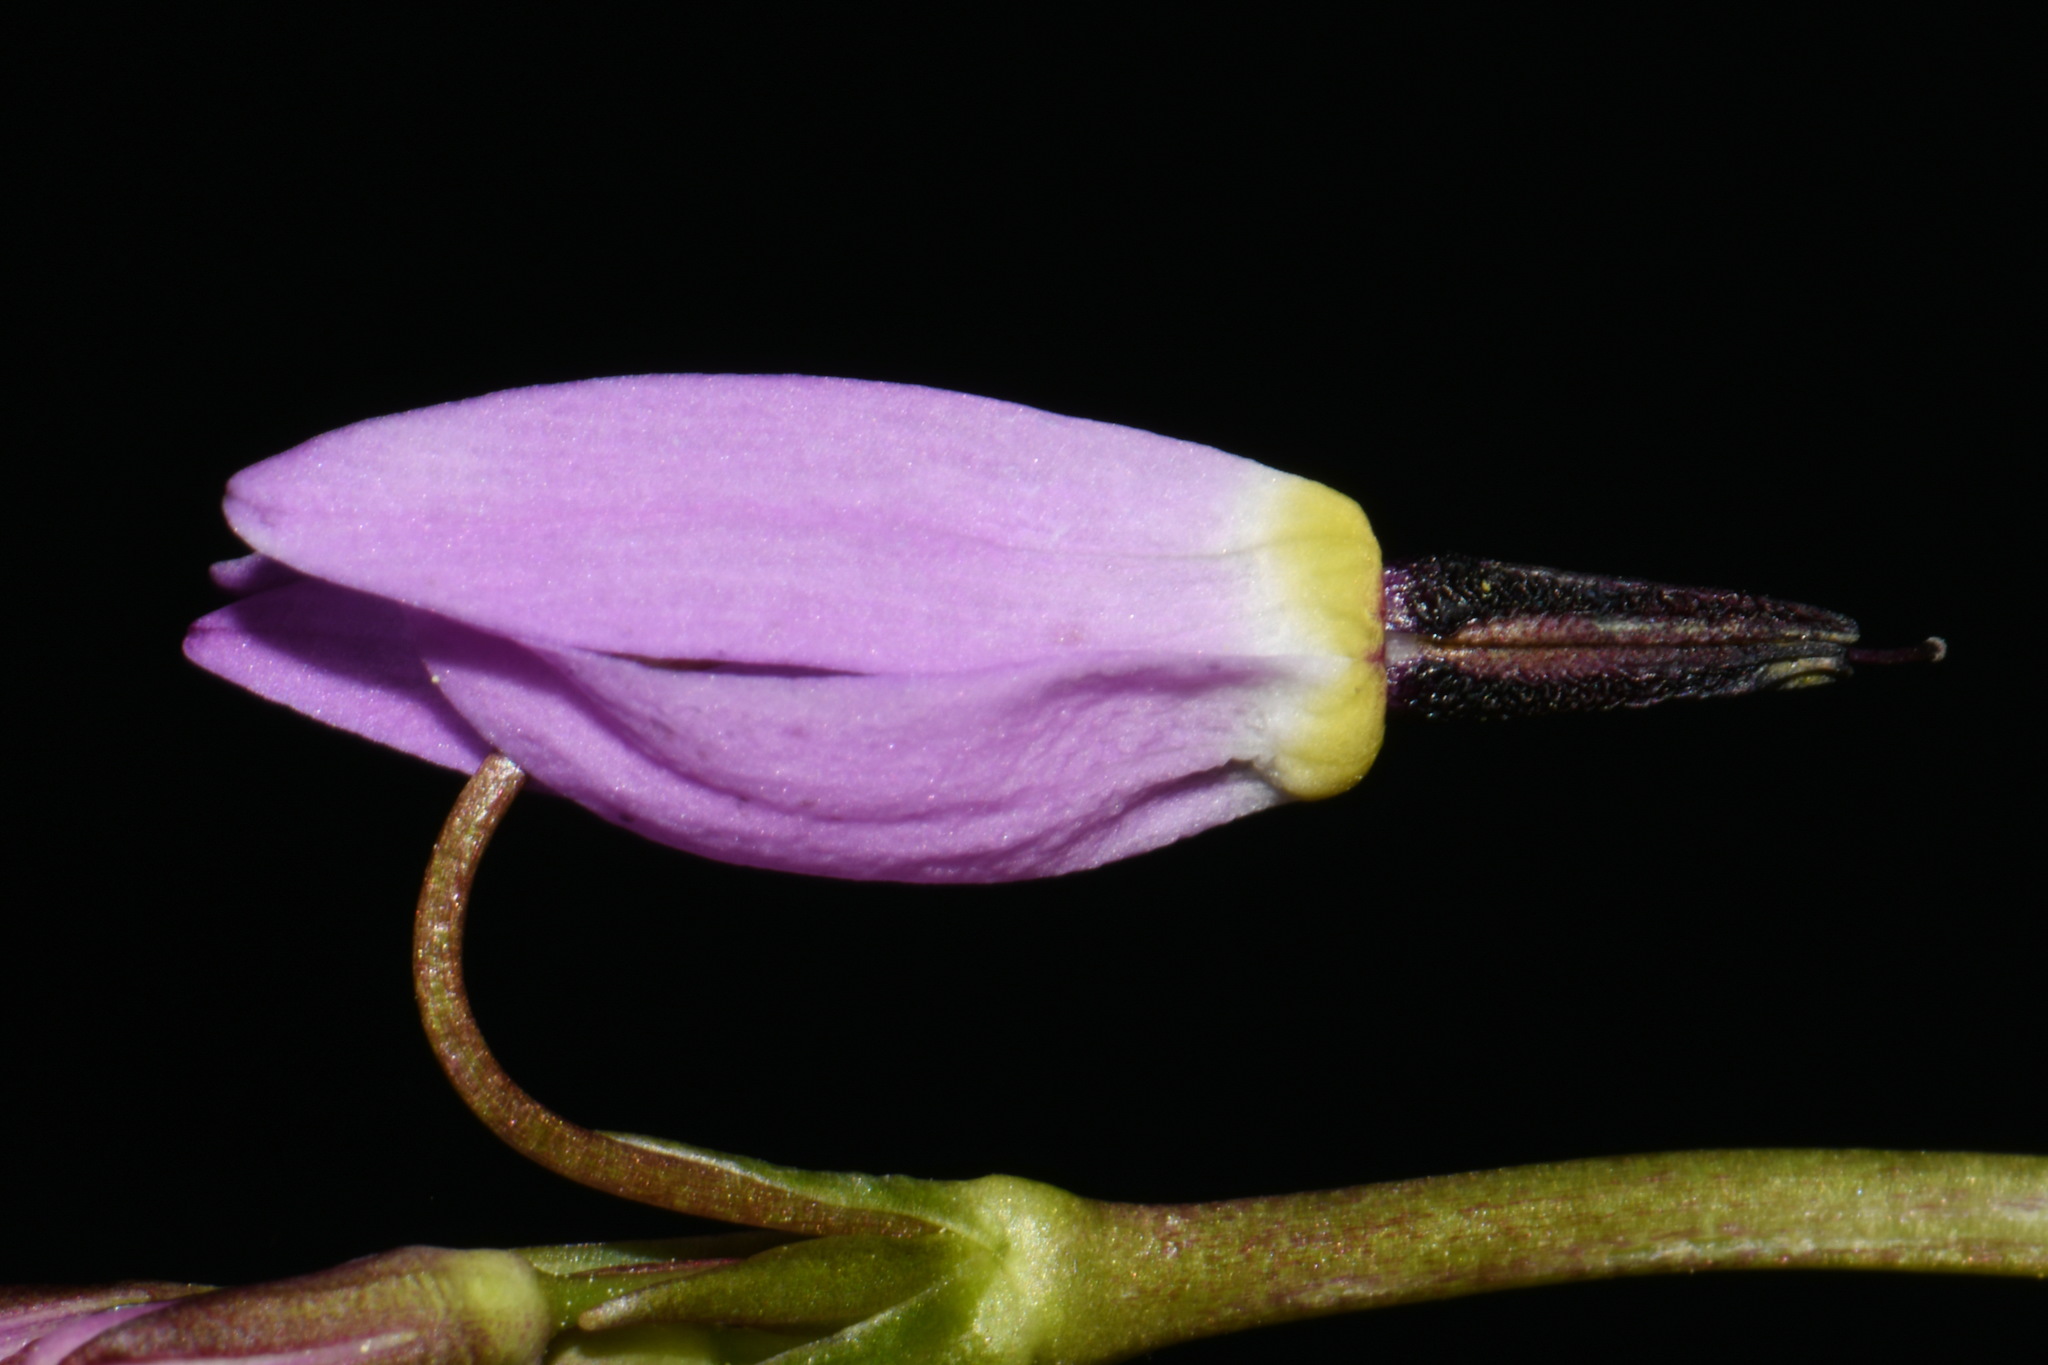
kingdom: Plantae
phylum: Tracheophyta
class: Magnoliopsida
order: Ericales
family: Primulaceae
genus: Dodecatheon
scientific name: Dodecatheon alpinum
